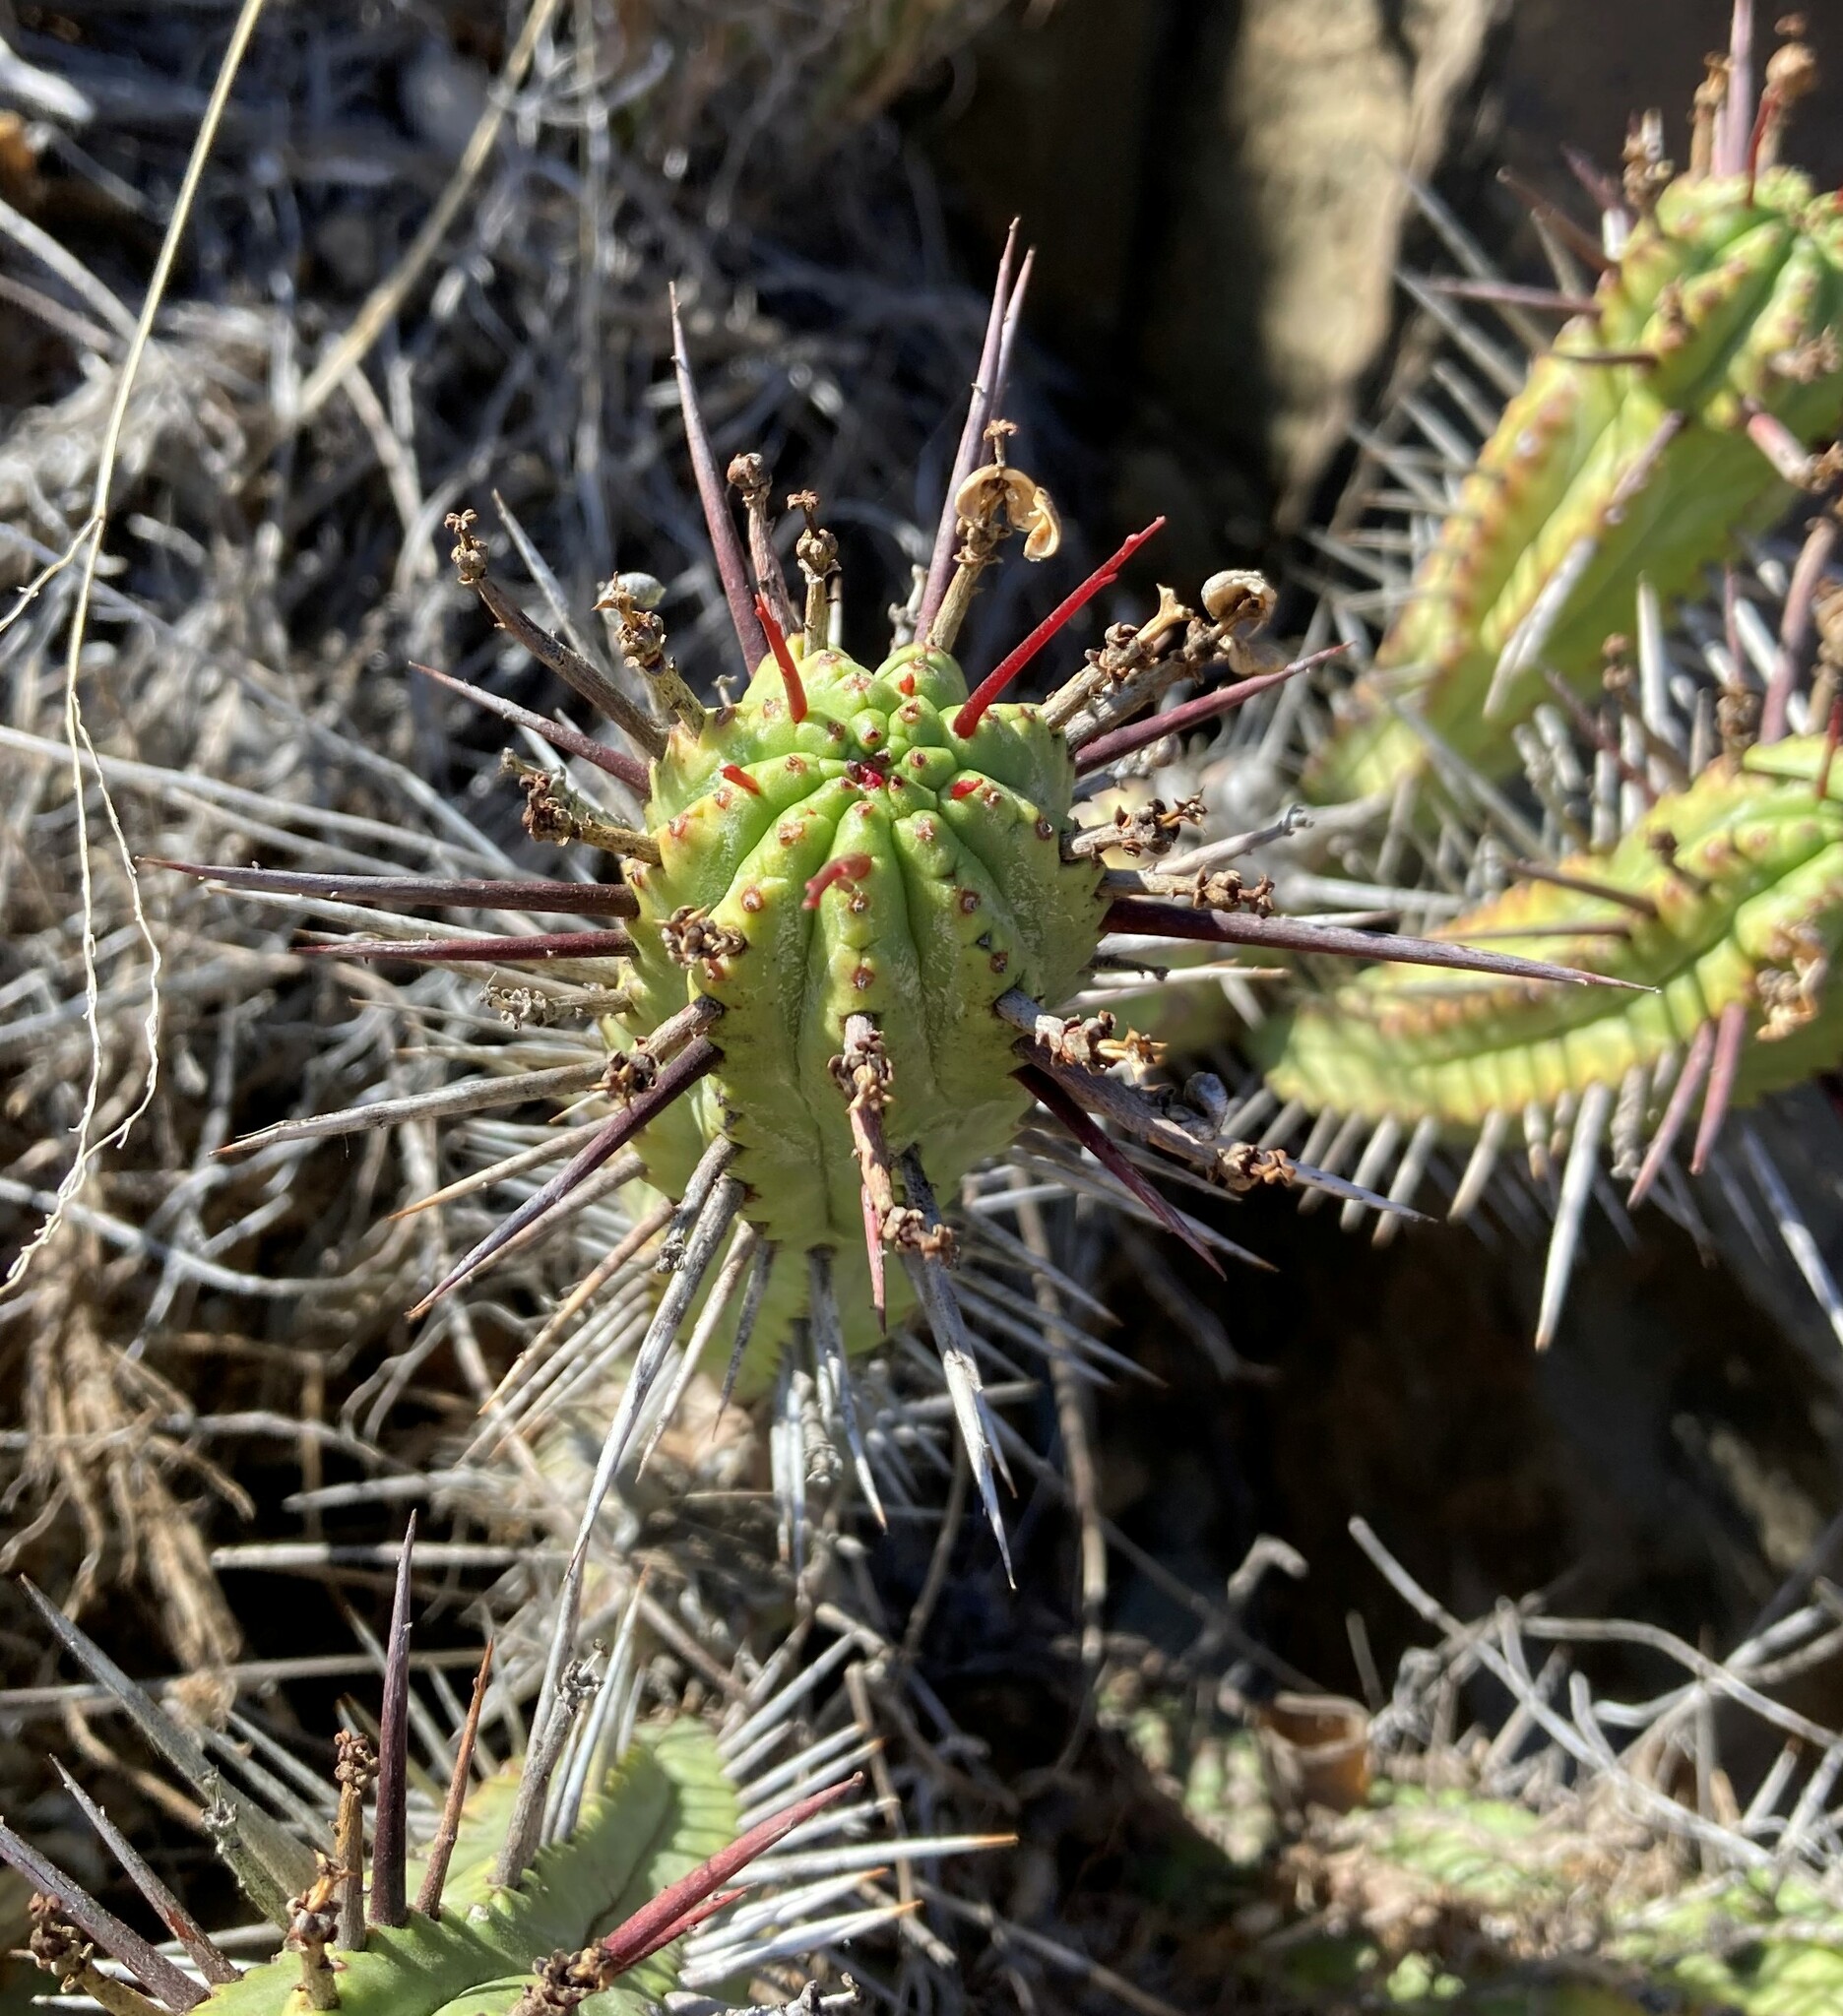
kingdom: Plantae
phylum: Tracheophyta
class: Magnoliopsida
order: Malpighiales
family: Euphorbiaceae
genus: Euphorbia
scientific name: Euphorbia heptagona
